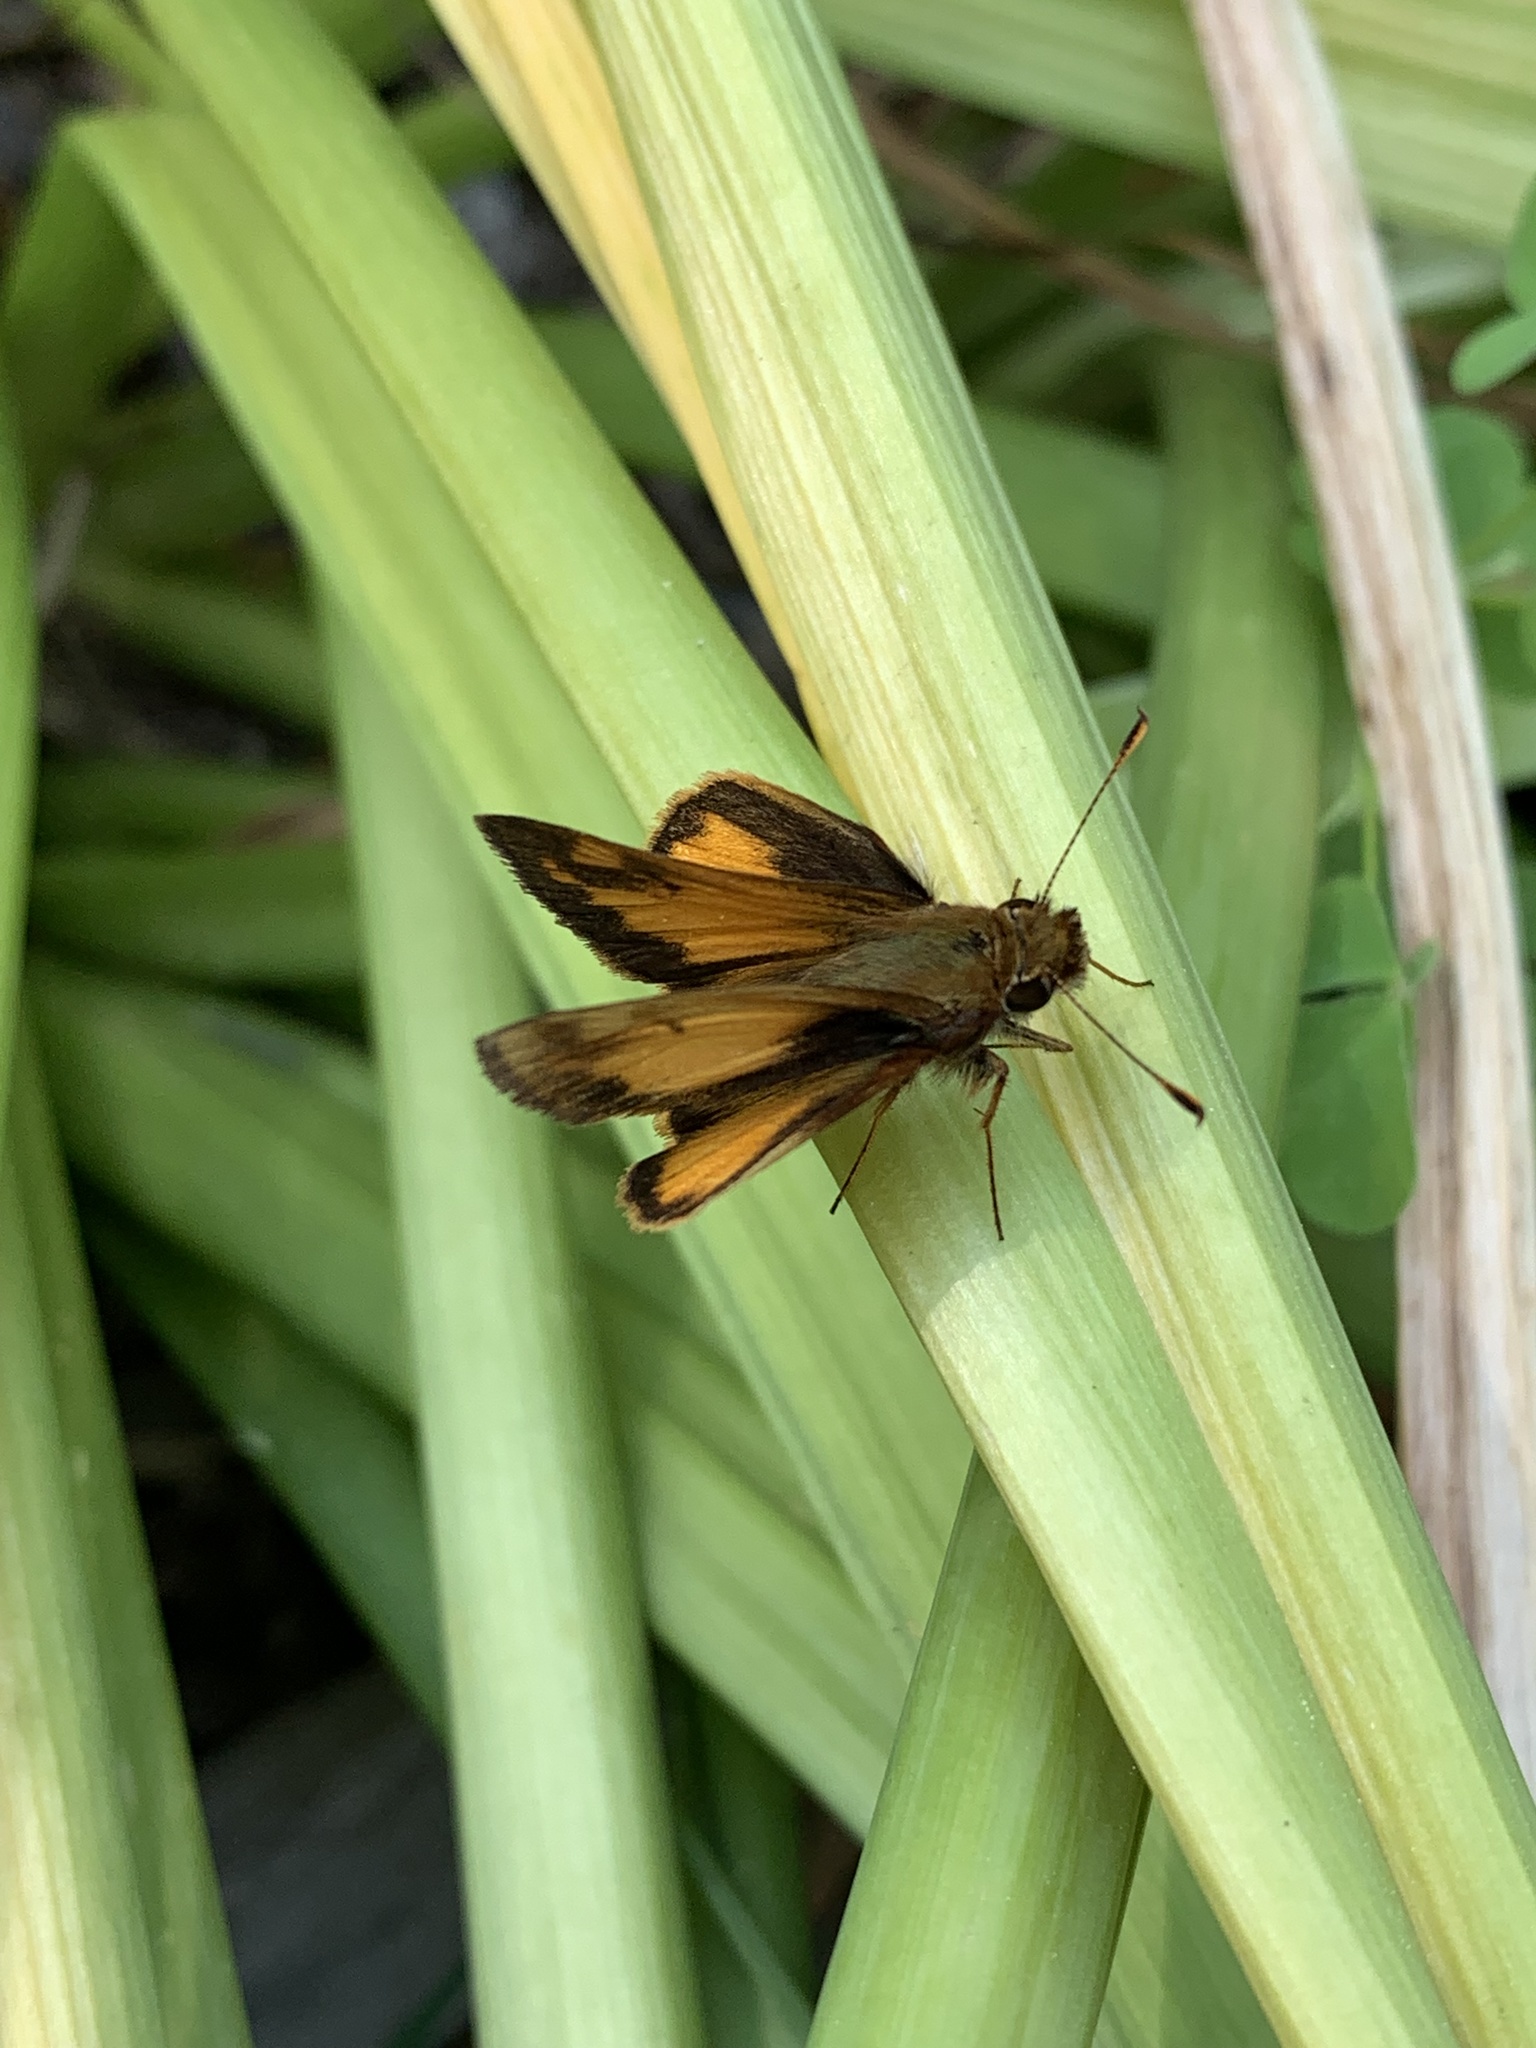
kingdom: Animalia
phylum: Arthropoda
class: Insecta
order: Lepidoptera
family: Hesperiidae
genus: Lon
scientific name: Lon zabulon
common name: Zabulon skipper
